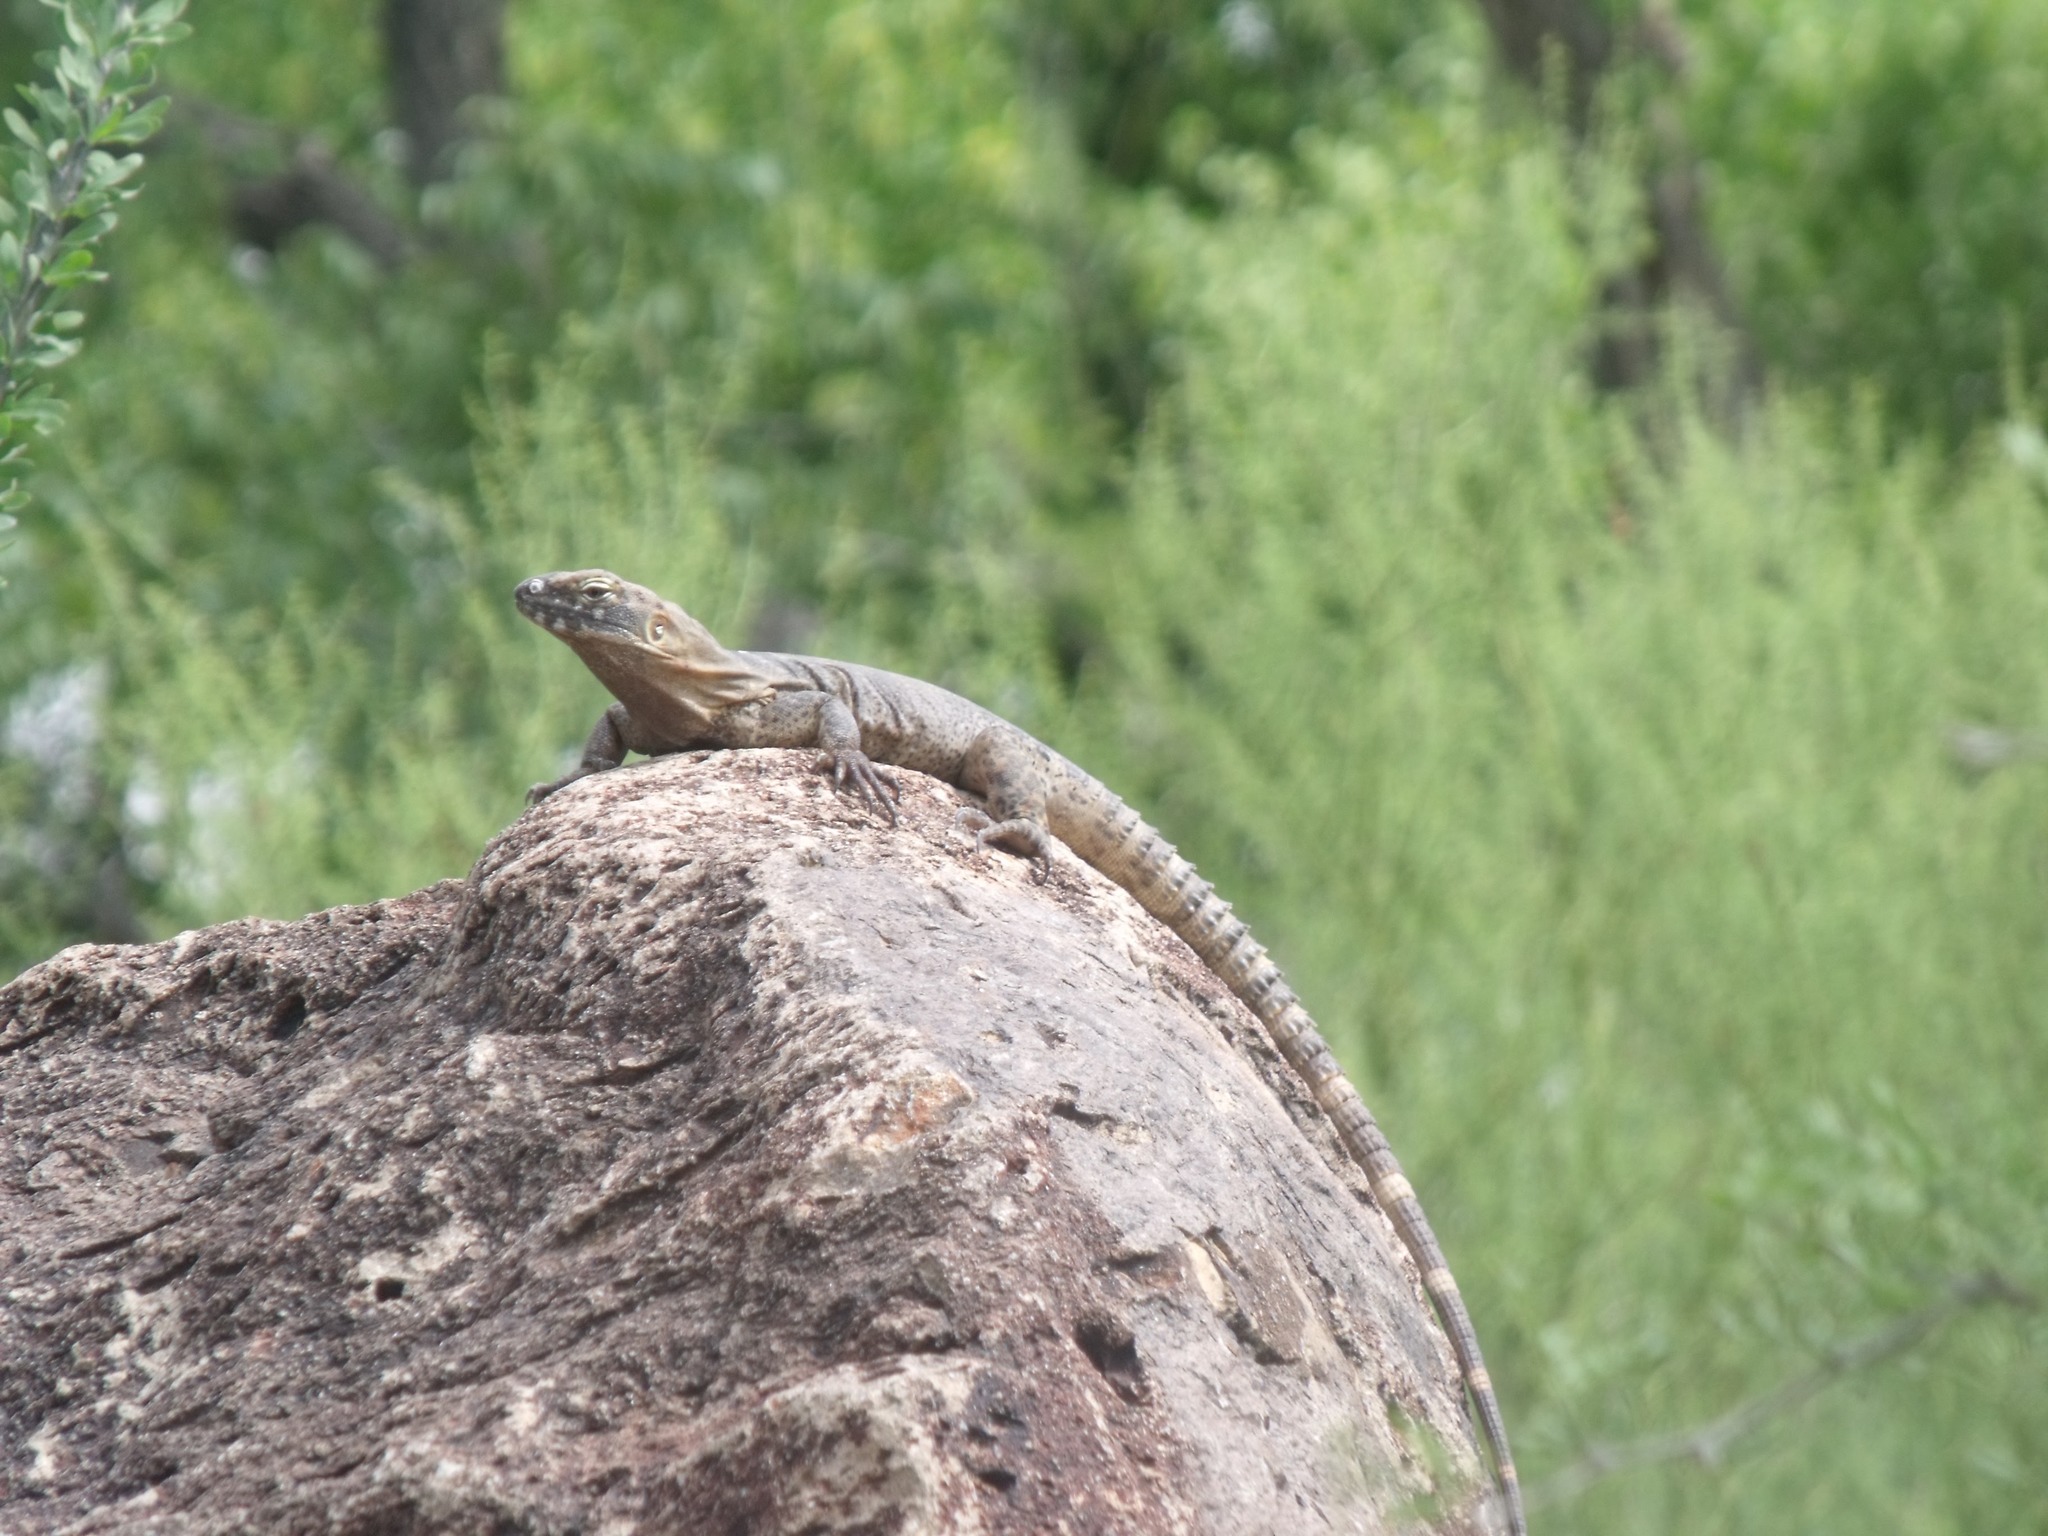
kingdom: Animalia
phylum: Chordata
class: Squamata
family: Iguanidae
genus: Ctenosaura
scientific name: Ctenosaura
